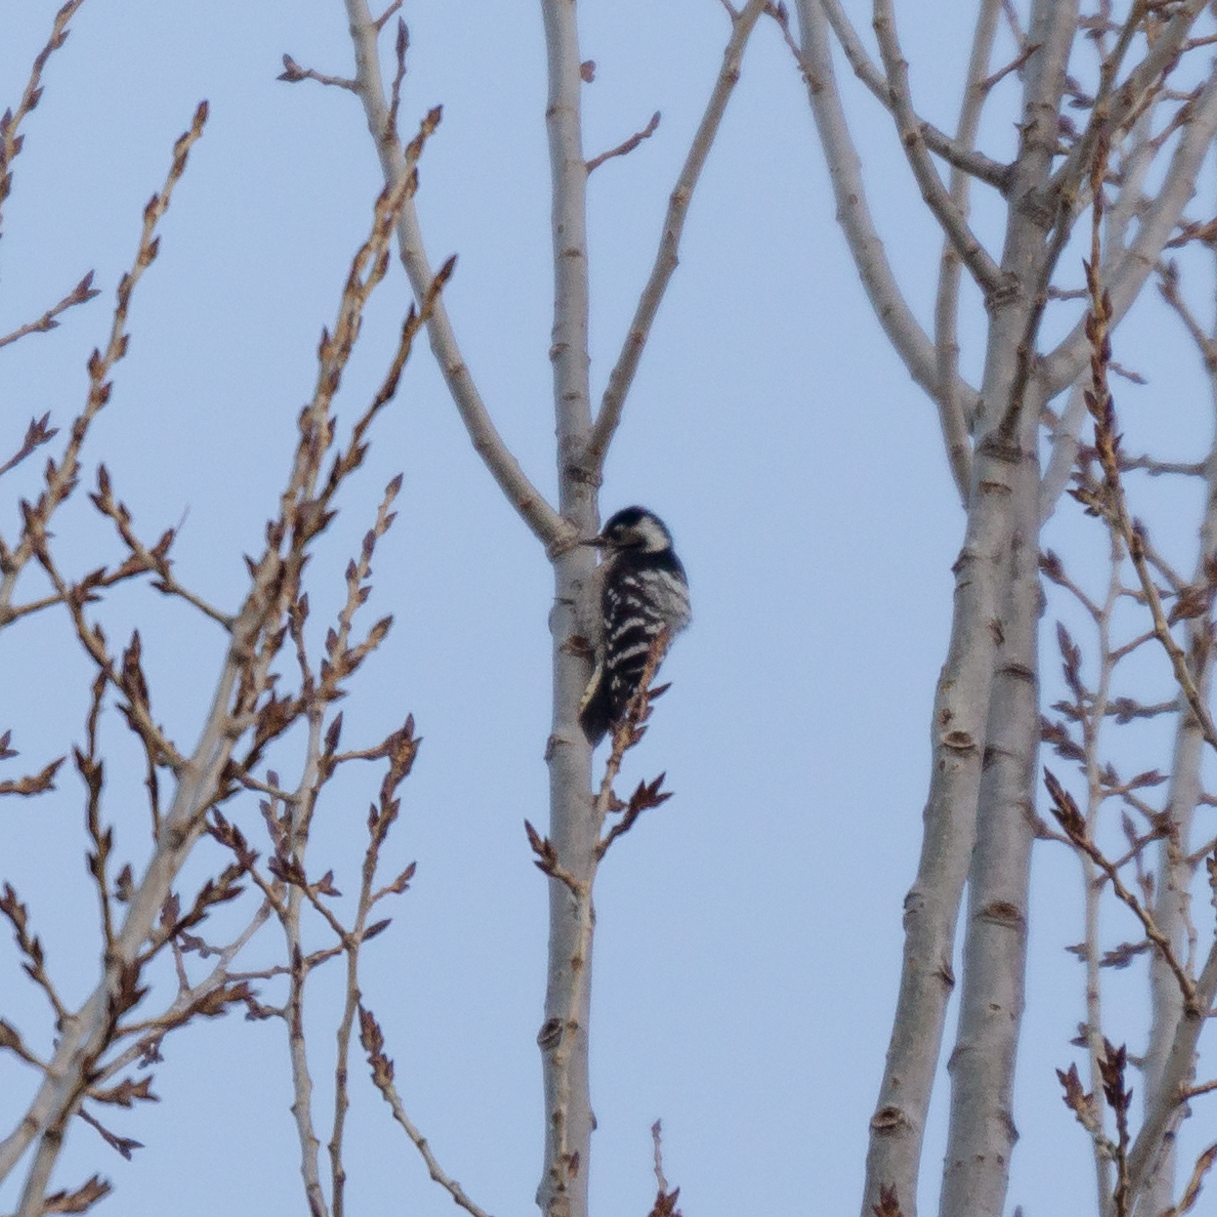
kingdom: Animalia
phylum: Chordata
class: Aves
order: Piciformes
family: Picidae
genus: Dryobates
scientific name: Dryobates minor
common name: Lesser spotted woodpecker
